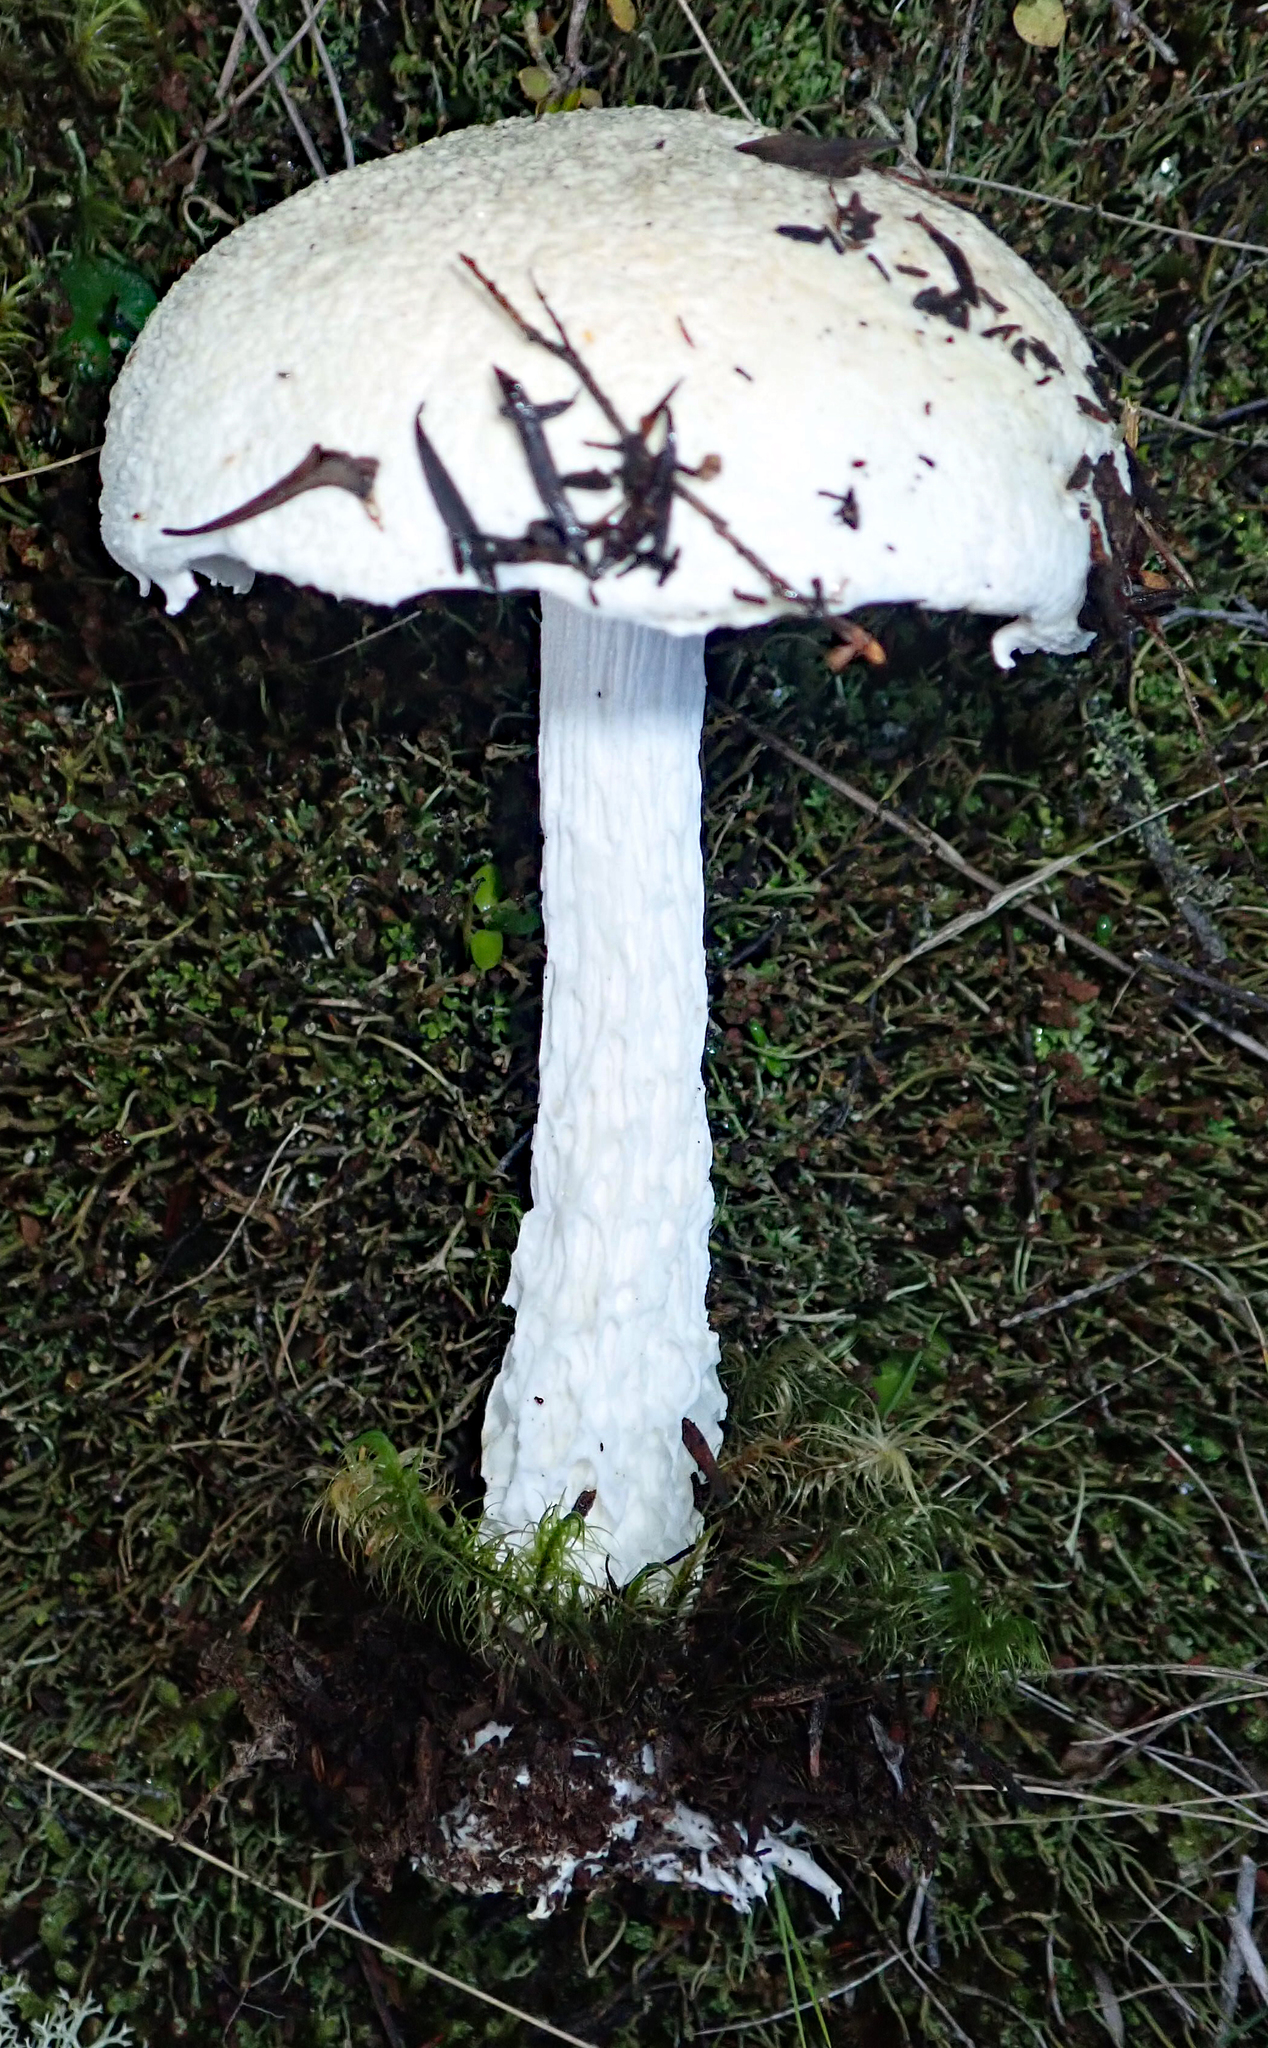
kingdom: Fungi
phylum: Basidiomycota
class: Agaricomycetes
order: Boletales
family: Boletaceae
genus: Fistulinella
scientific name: Fistulinella nivea
